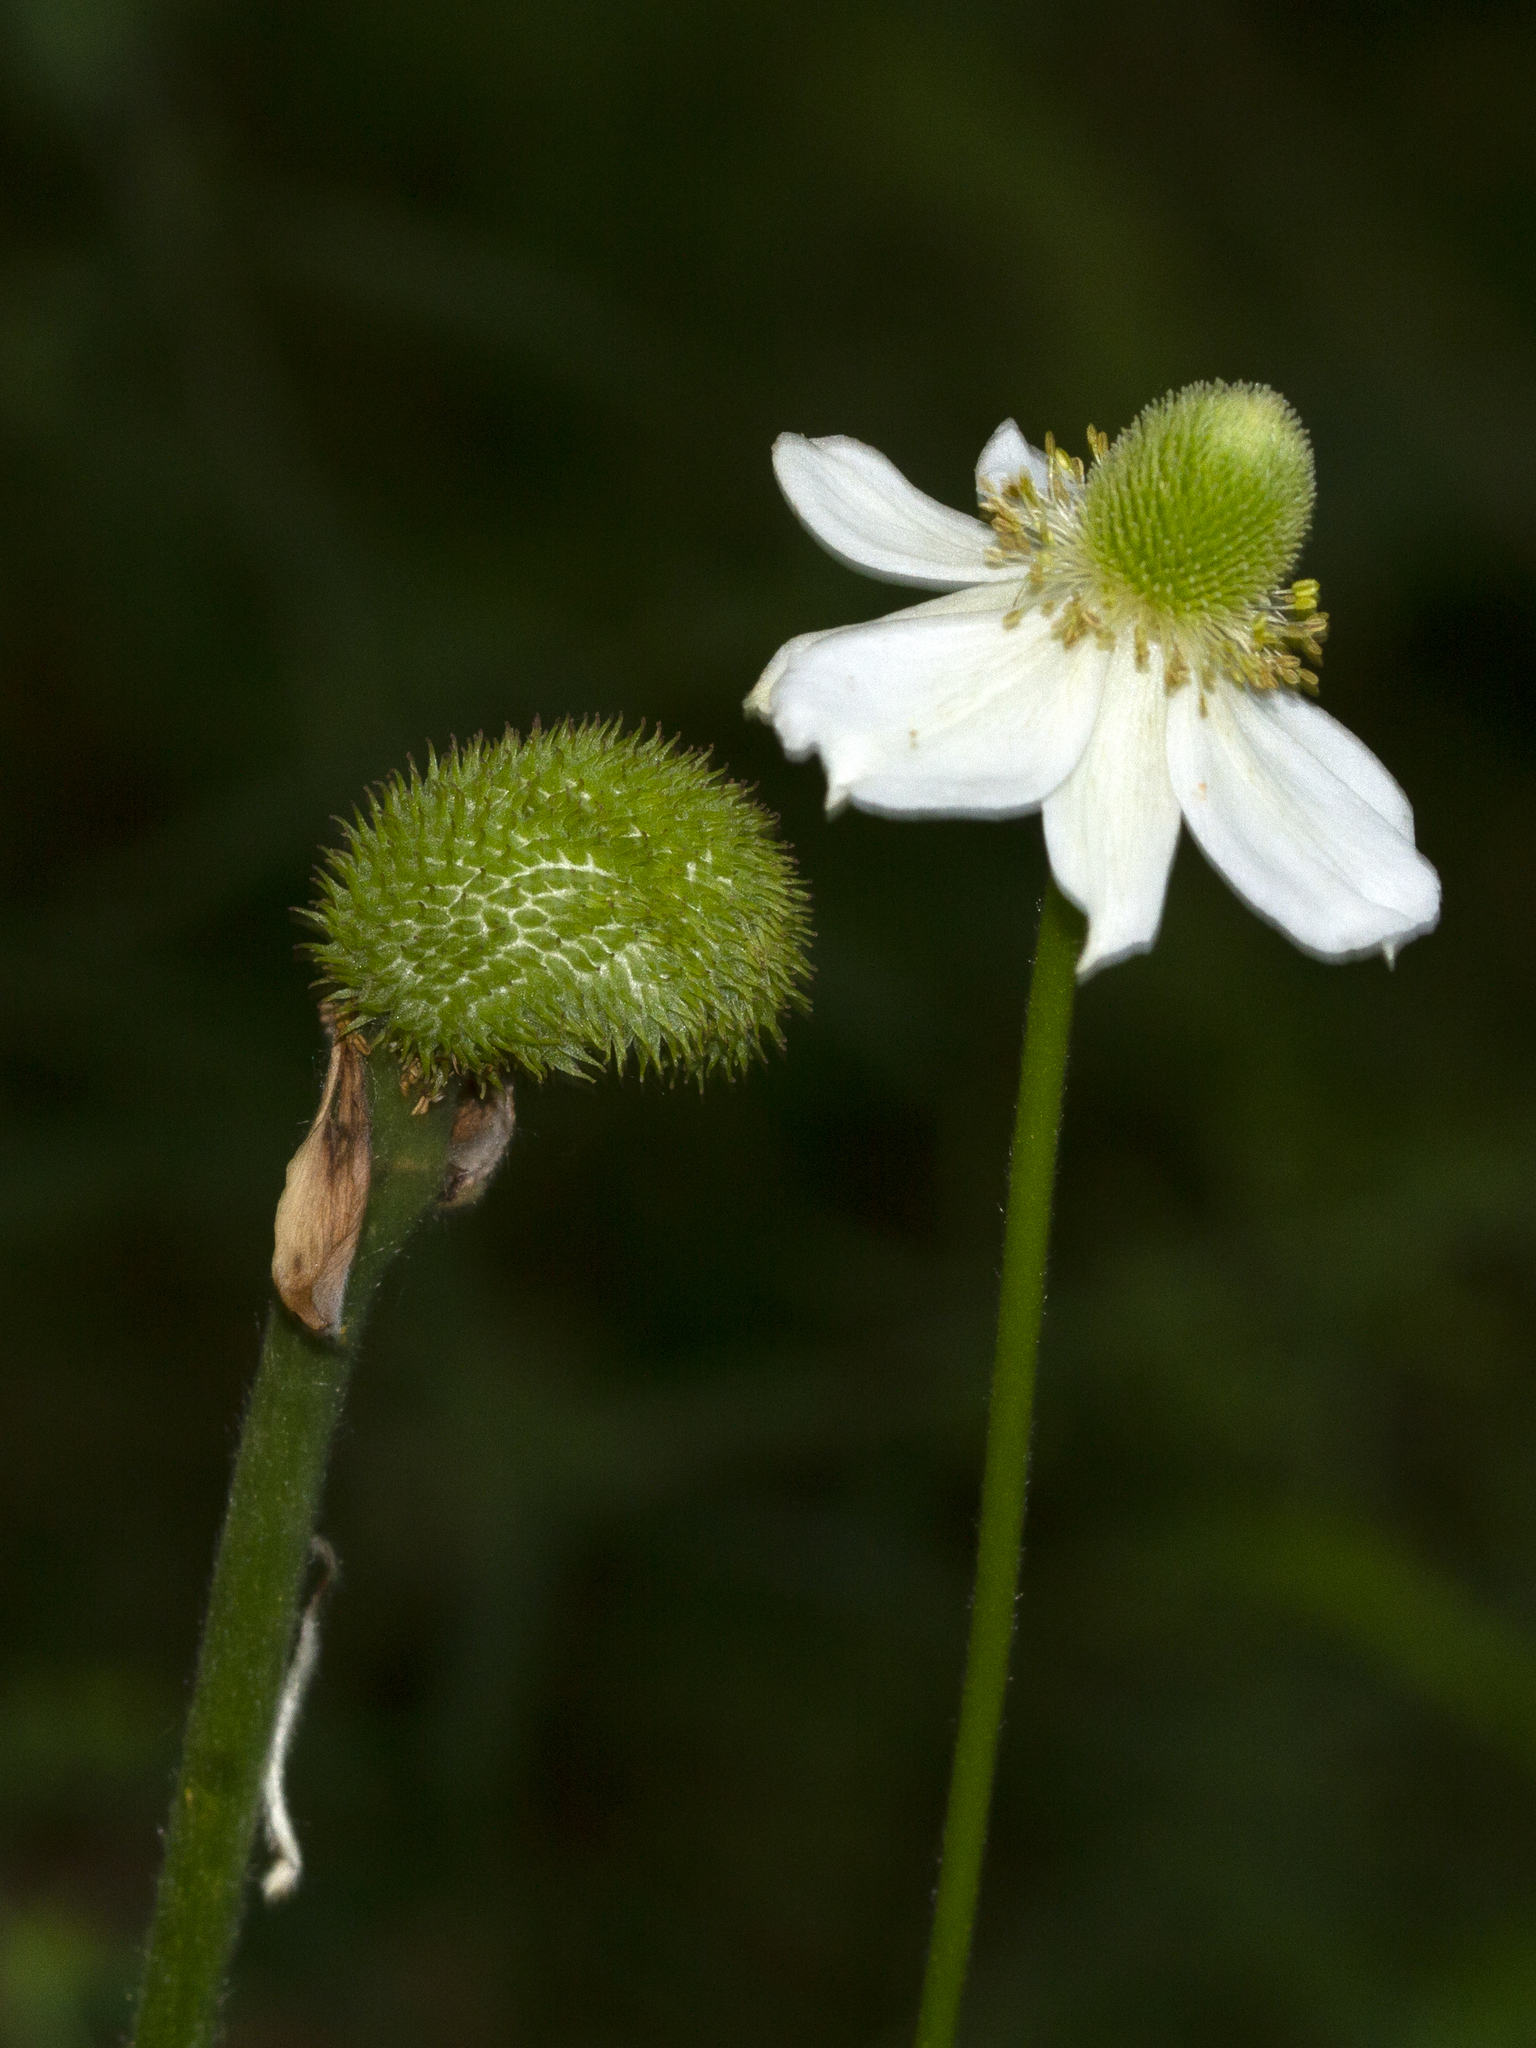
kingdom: Plantae
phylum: Tracheophyta
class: Magnoliopsida
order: Ranunculales
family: Ranunculaceae
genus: Anemone
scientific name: Anemone virginiana
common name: Tall anemone
